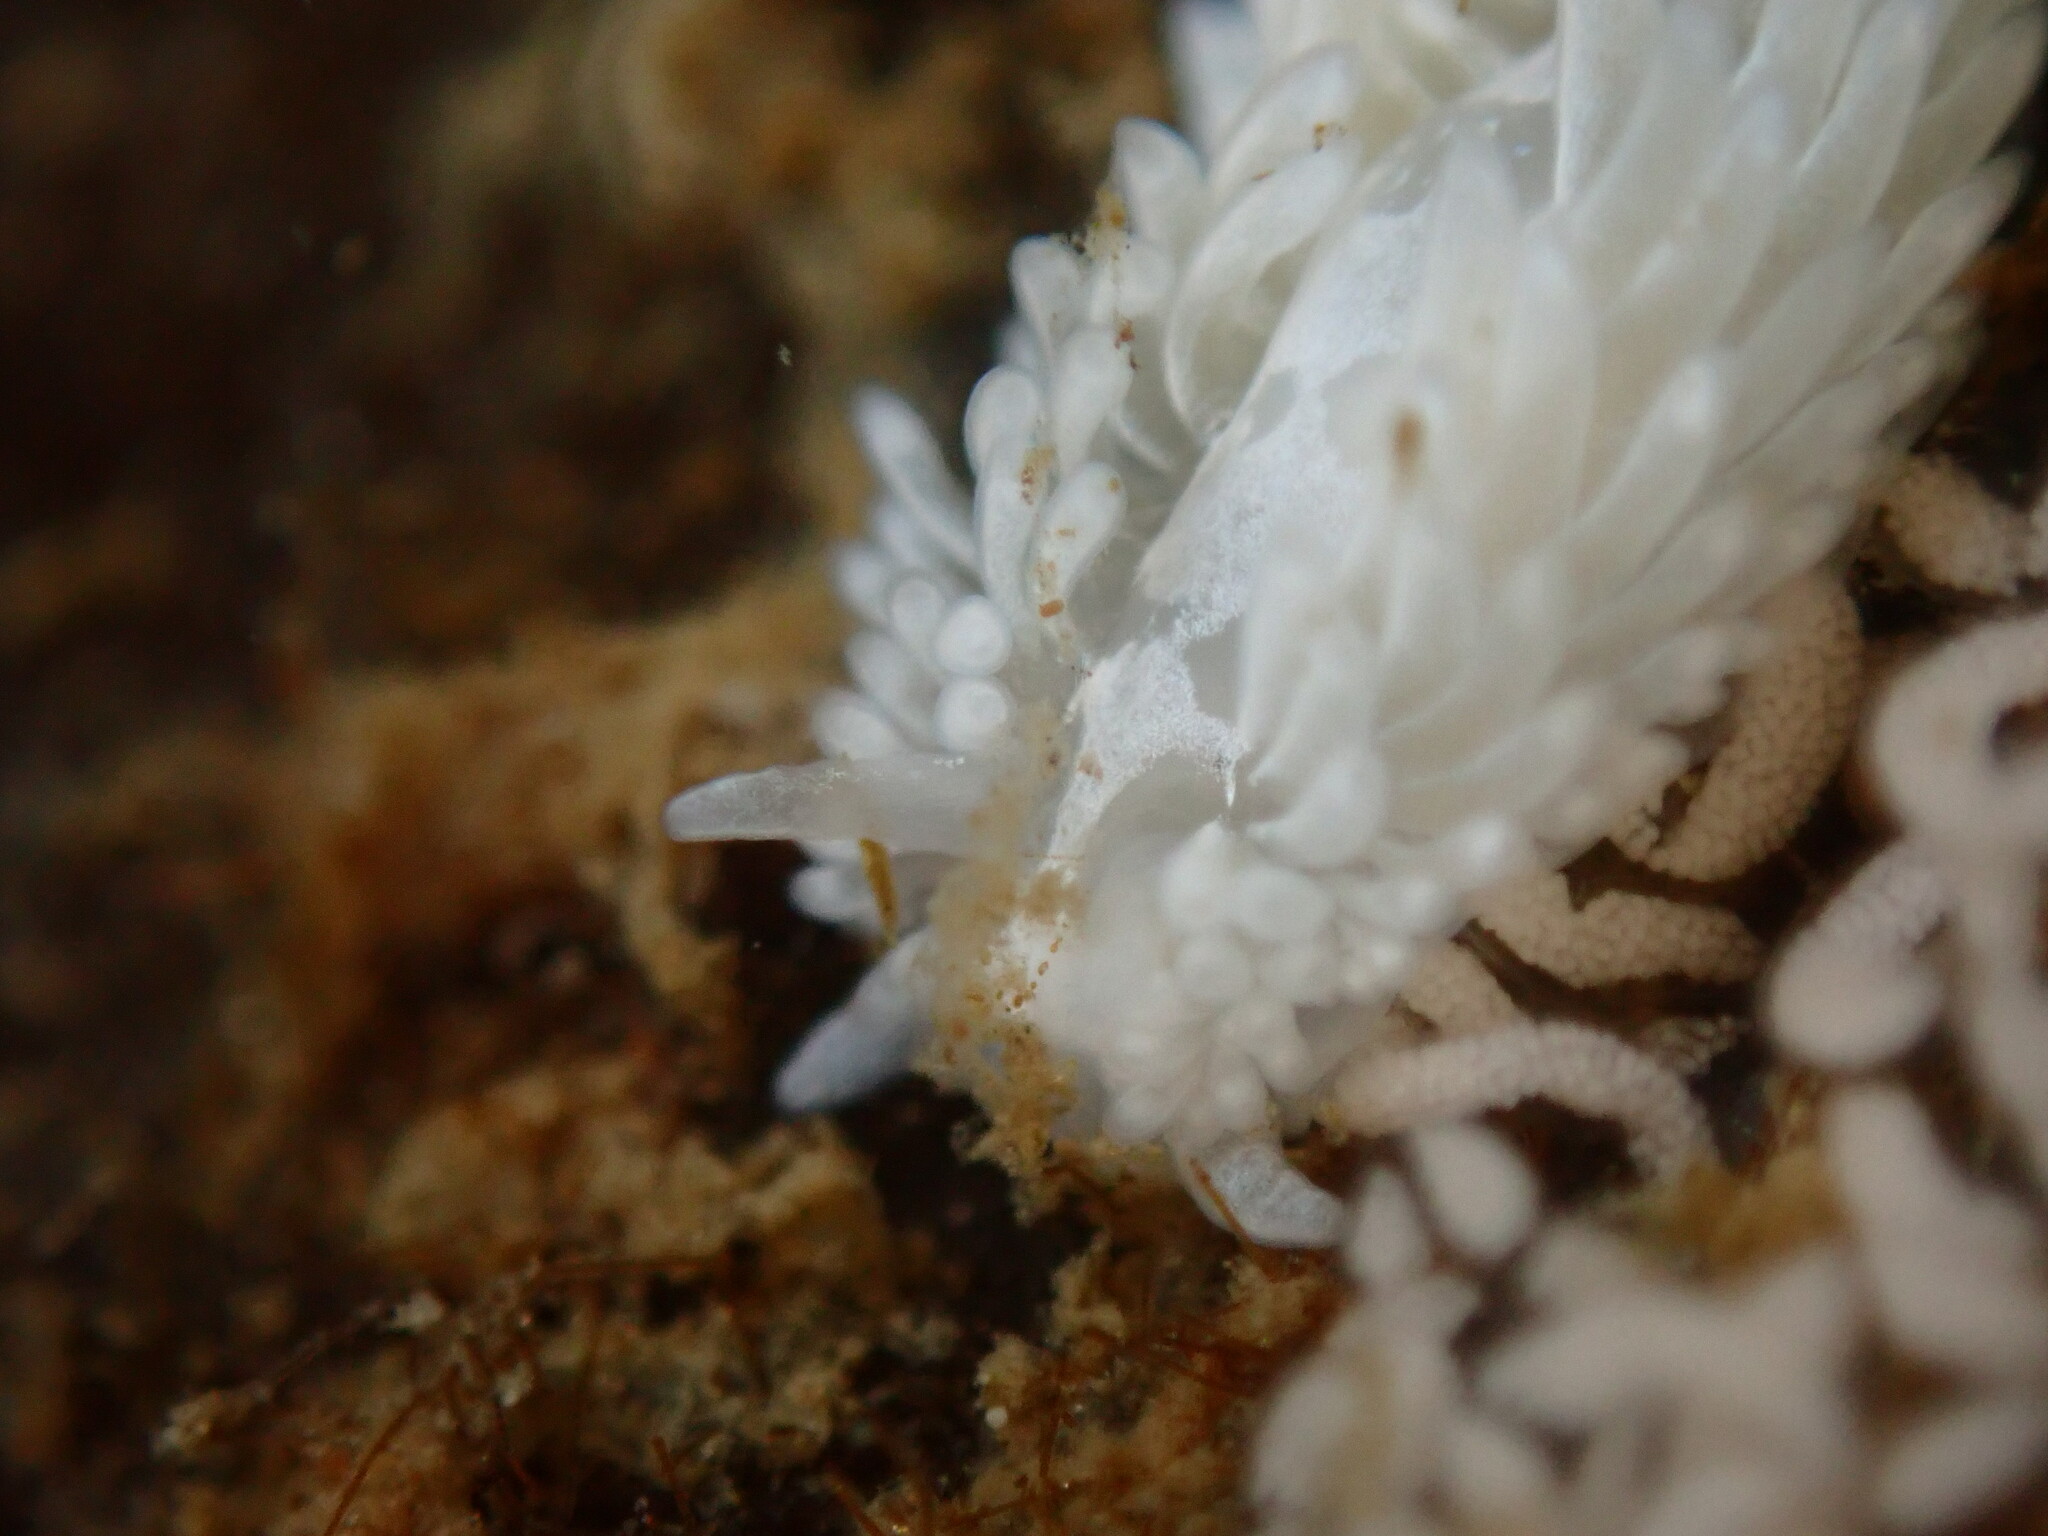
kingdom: Animalia
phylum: Mollusca
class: Gastropoda
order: Nudibranchia
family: Aeolidiidae
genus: Aeolidia
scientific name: Aeolidia papillosa
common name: Common grey sea slug
